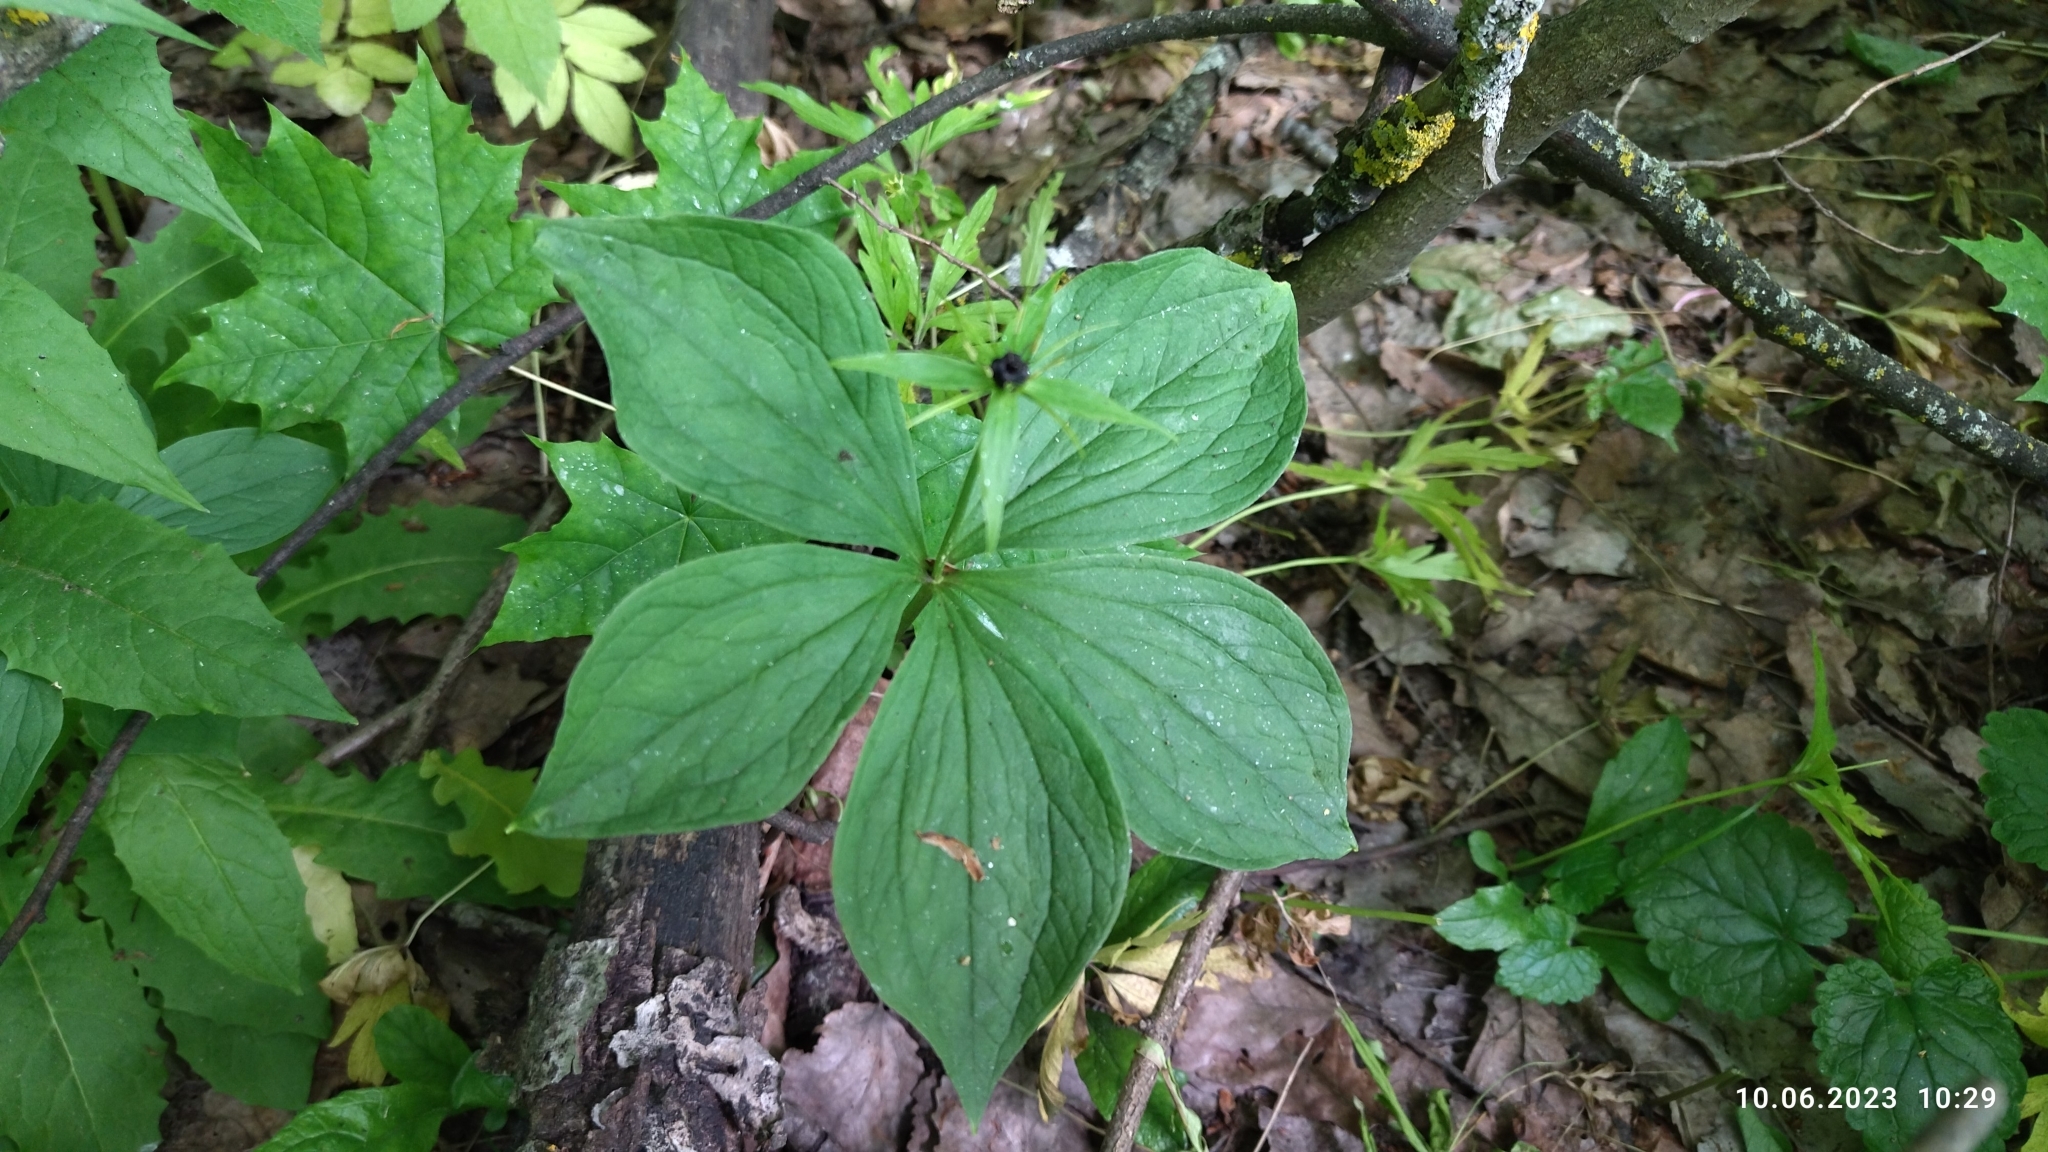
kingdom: Plantae
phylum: Tracheophyta
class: Liliopsida
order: Liliales
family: Melanthiaceae
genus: Paris
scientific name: Paris quadrifolia
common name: Herb-paris
